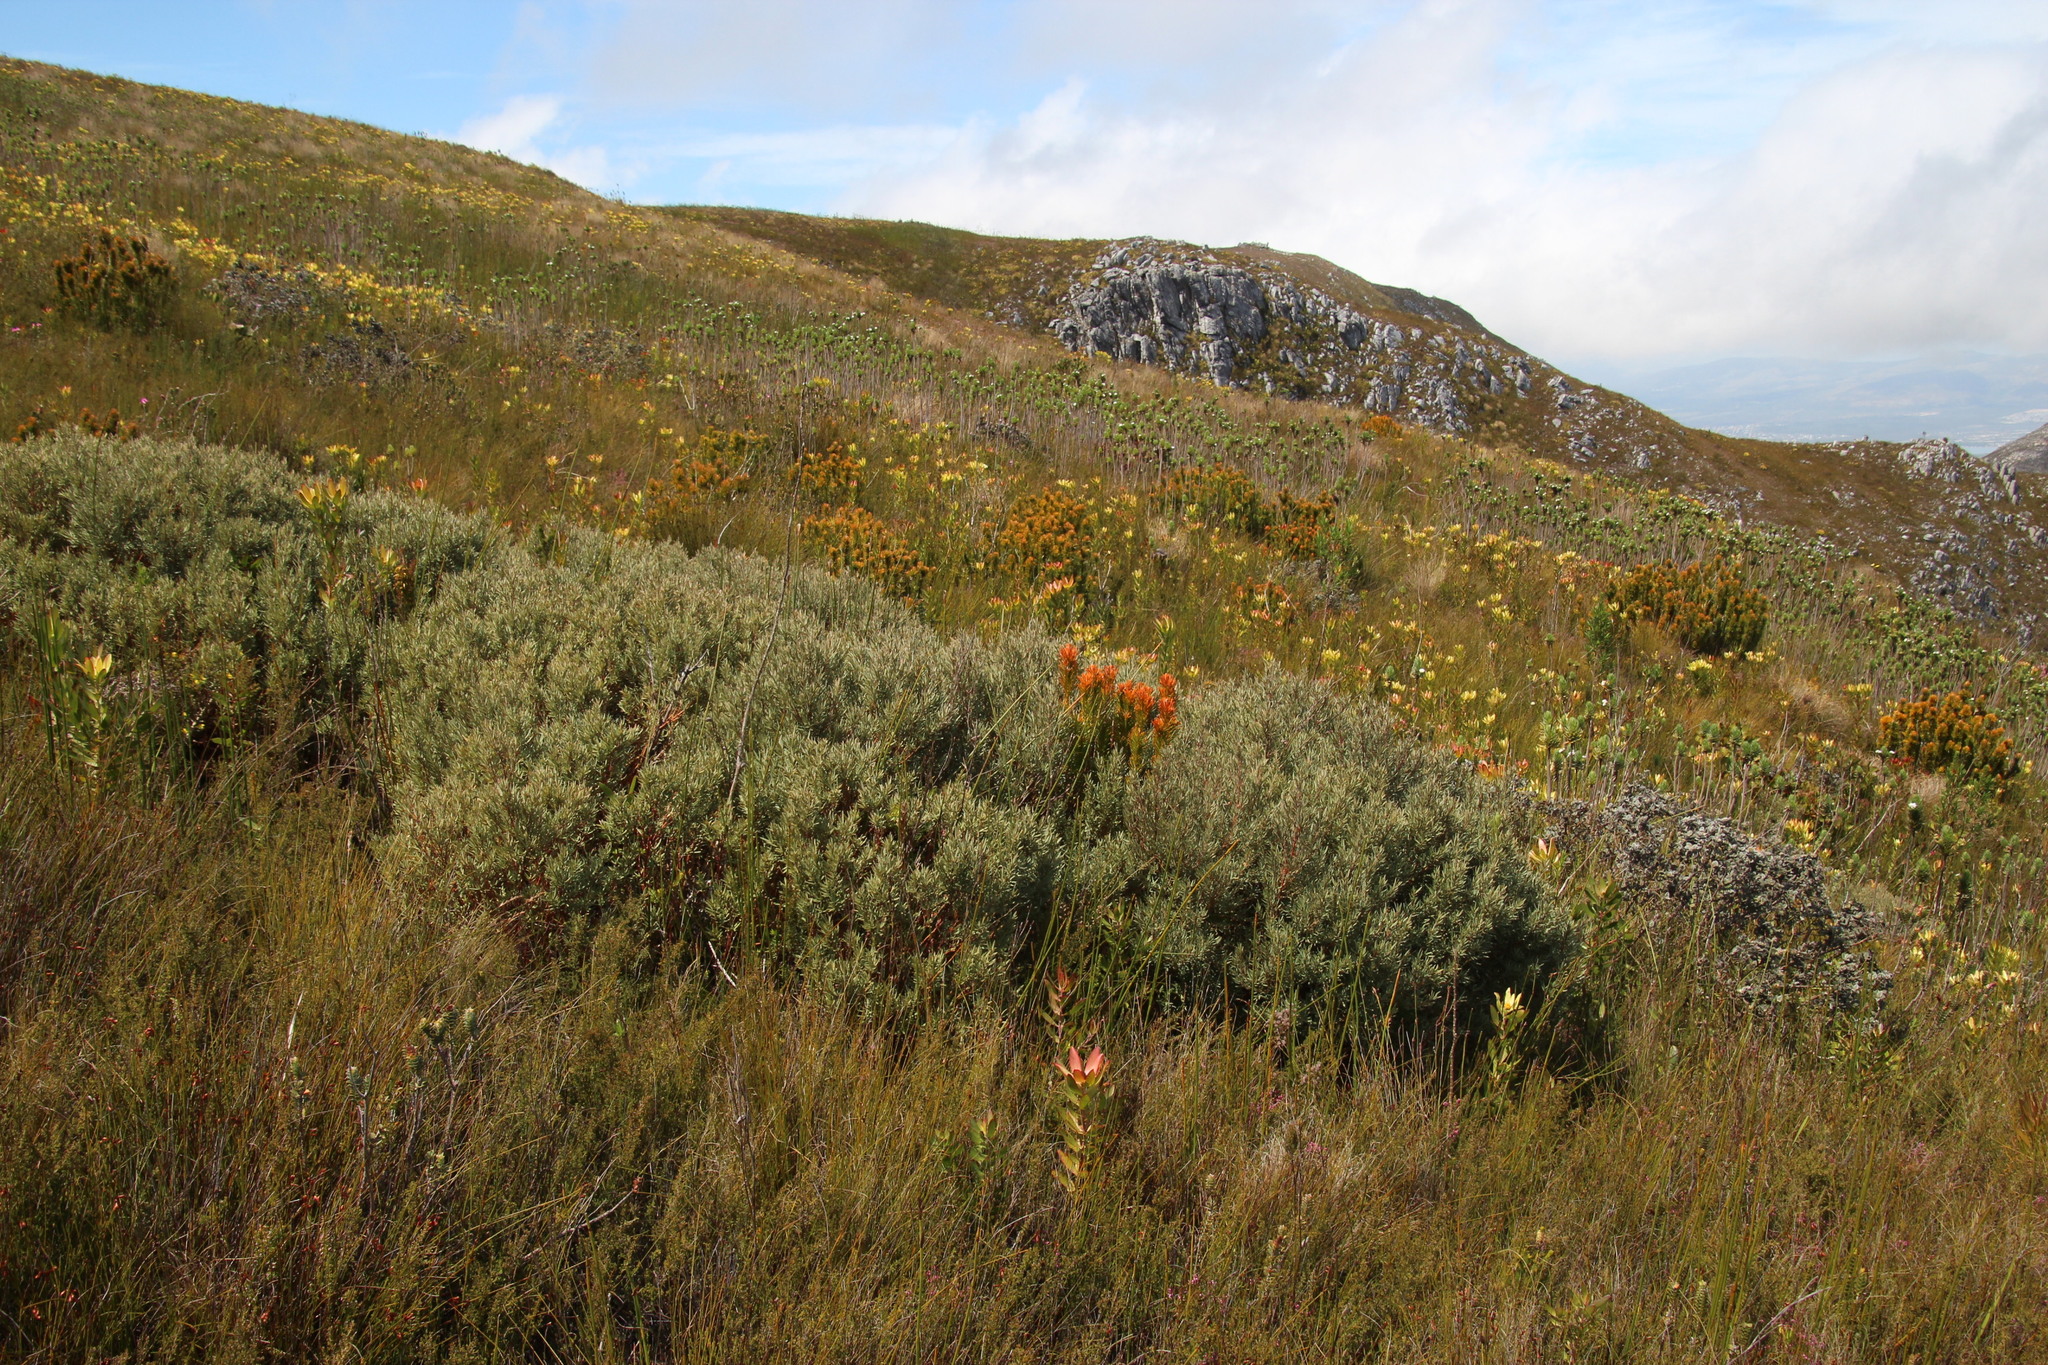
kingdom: Plantae
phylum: Tracheophyta
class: Magnoliopsida
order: Cornales
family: Grubbiaceae
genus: Grubbia
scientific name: Grubbia tomentosa
